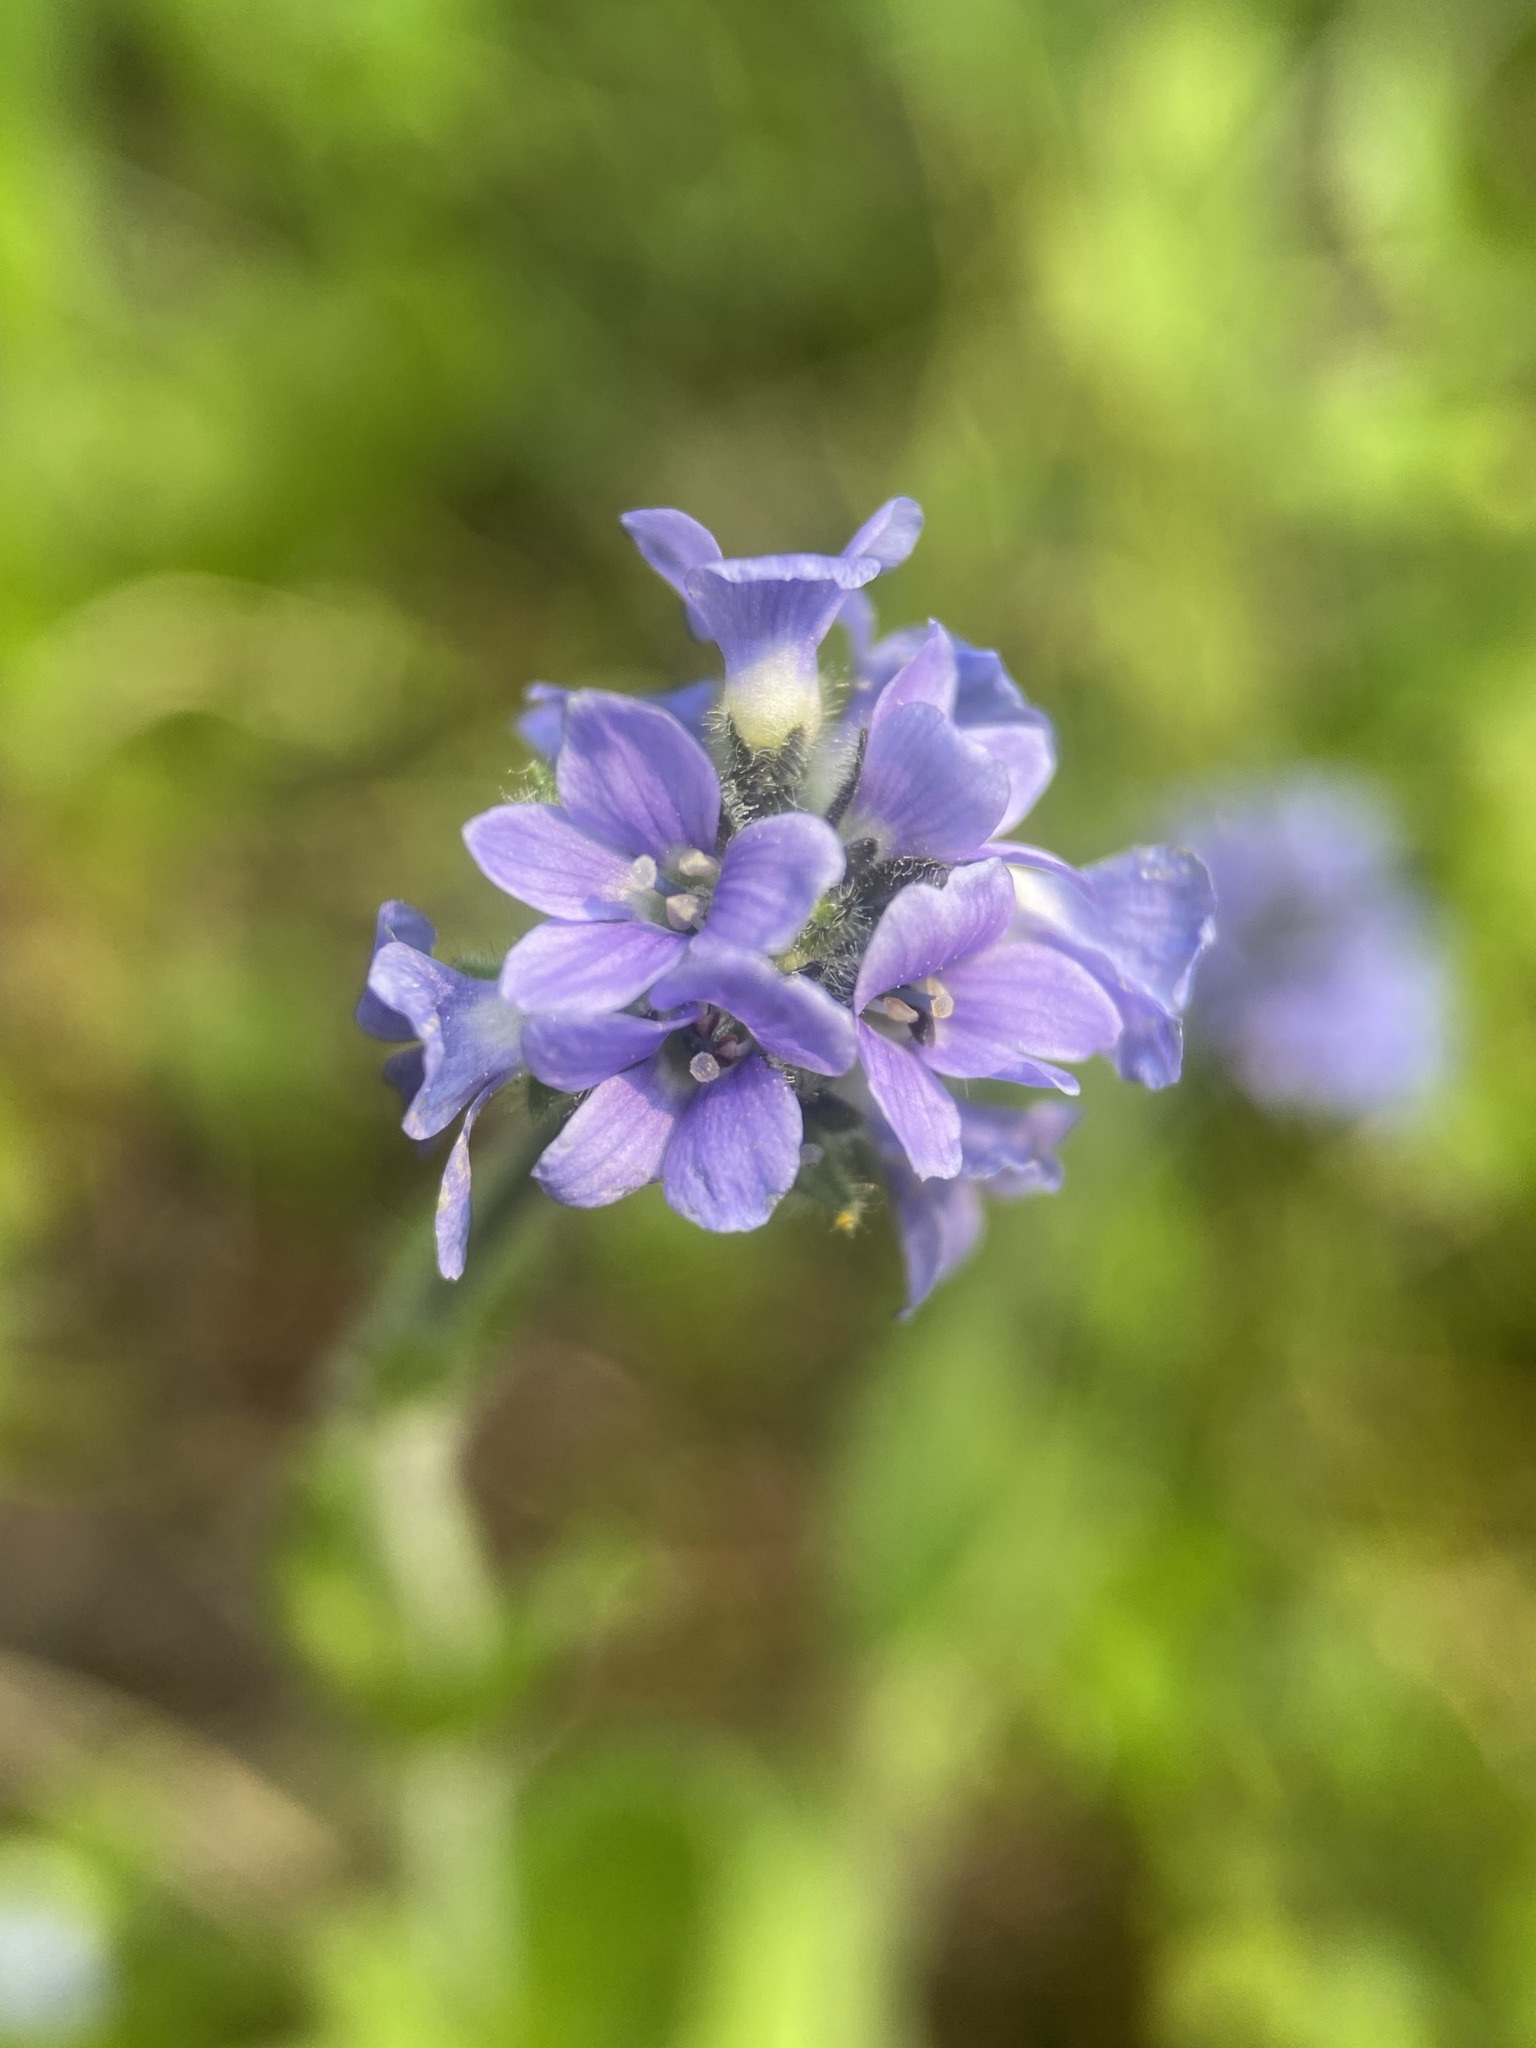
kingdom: Plantae
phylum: Tracheophyta
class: Magnoliopsida
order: Lamiales
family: Plantaginaceae
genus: Veronica
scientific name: Veronica wormskjoldii
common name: American alpine speedwell
